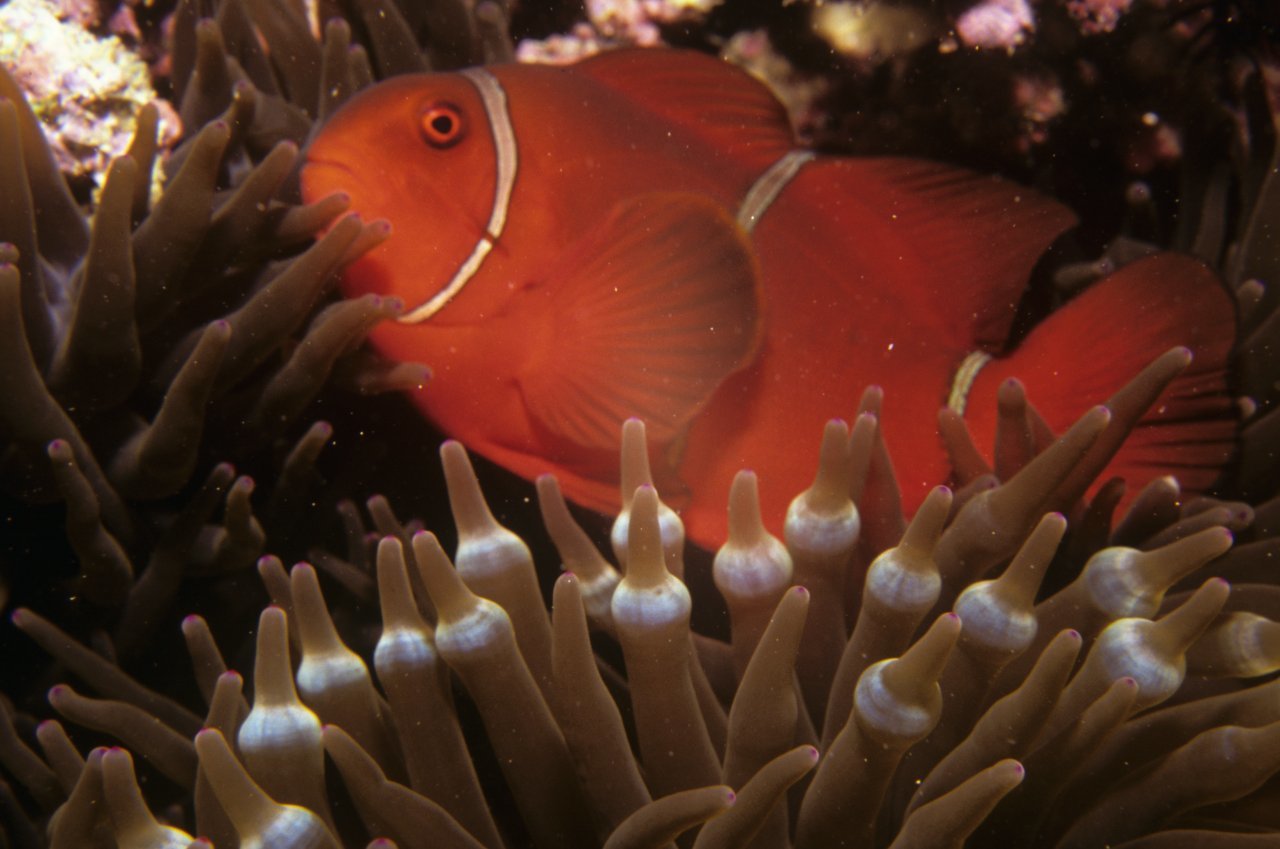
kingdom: Animalia
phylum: Chordata
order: Perciformes
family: Pomacentridae
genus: Premnas
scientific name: Premnas biaculeatus
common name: Spinecheek anemonefish
